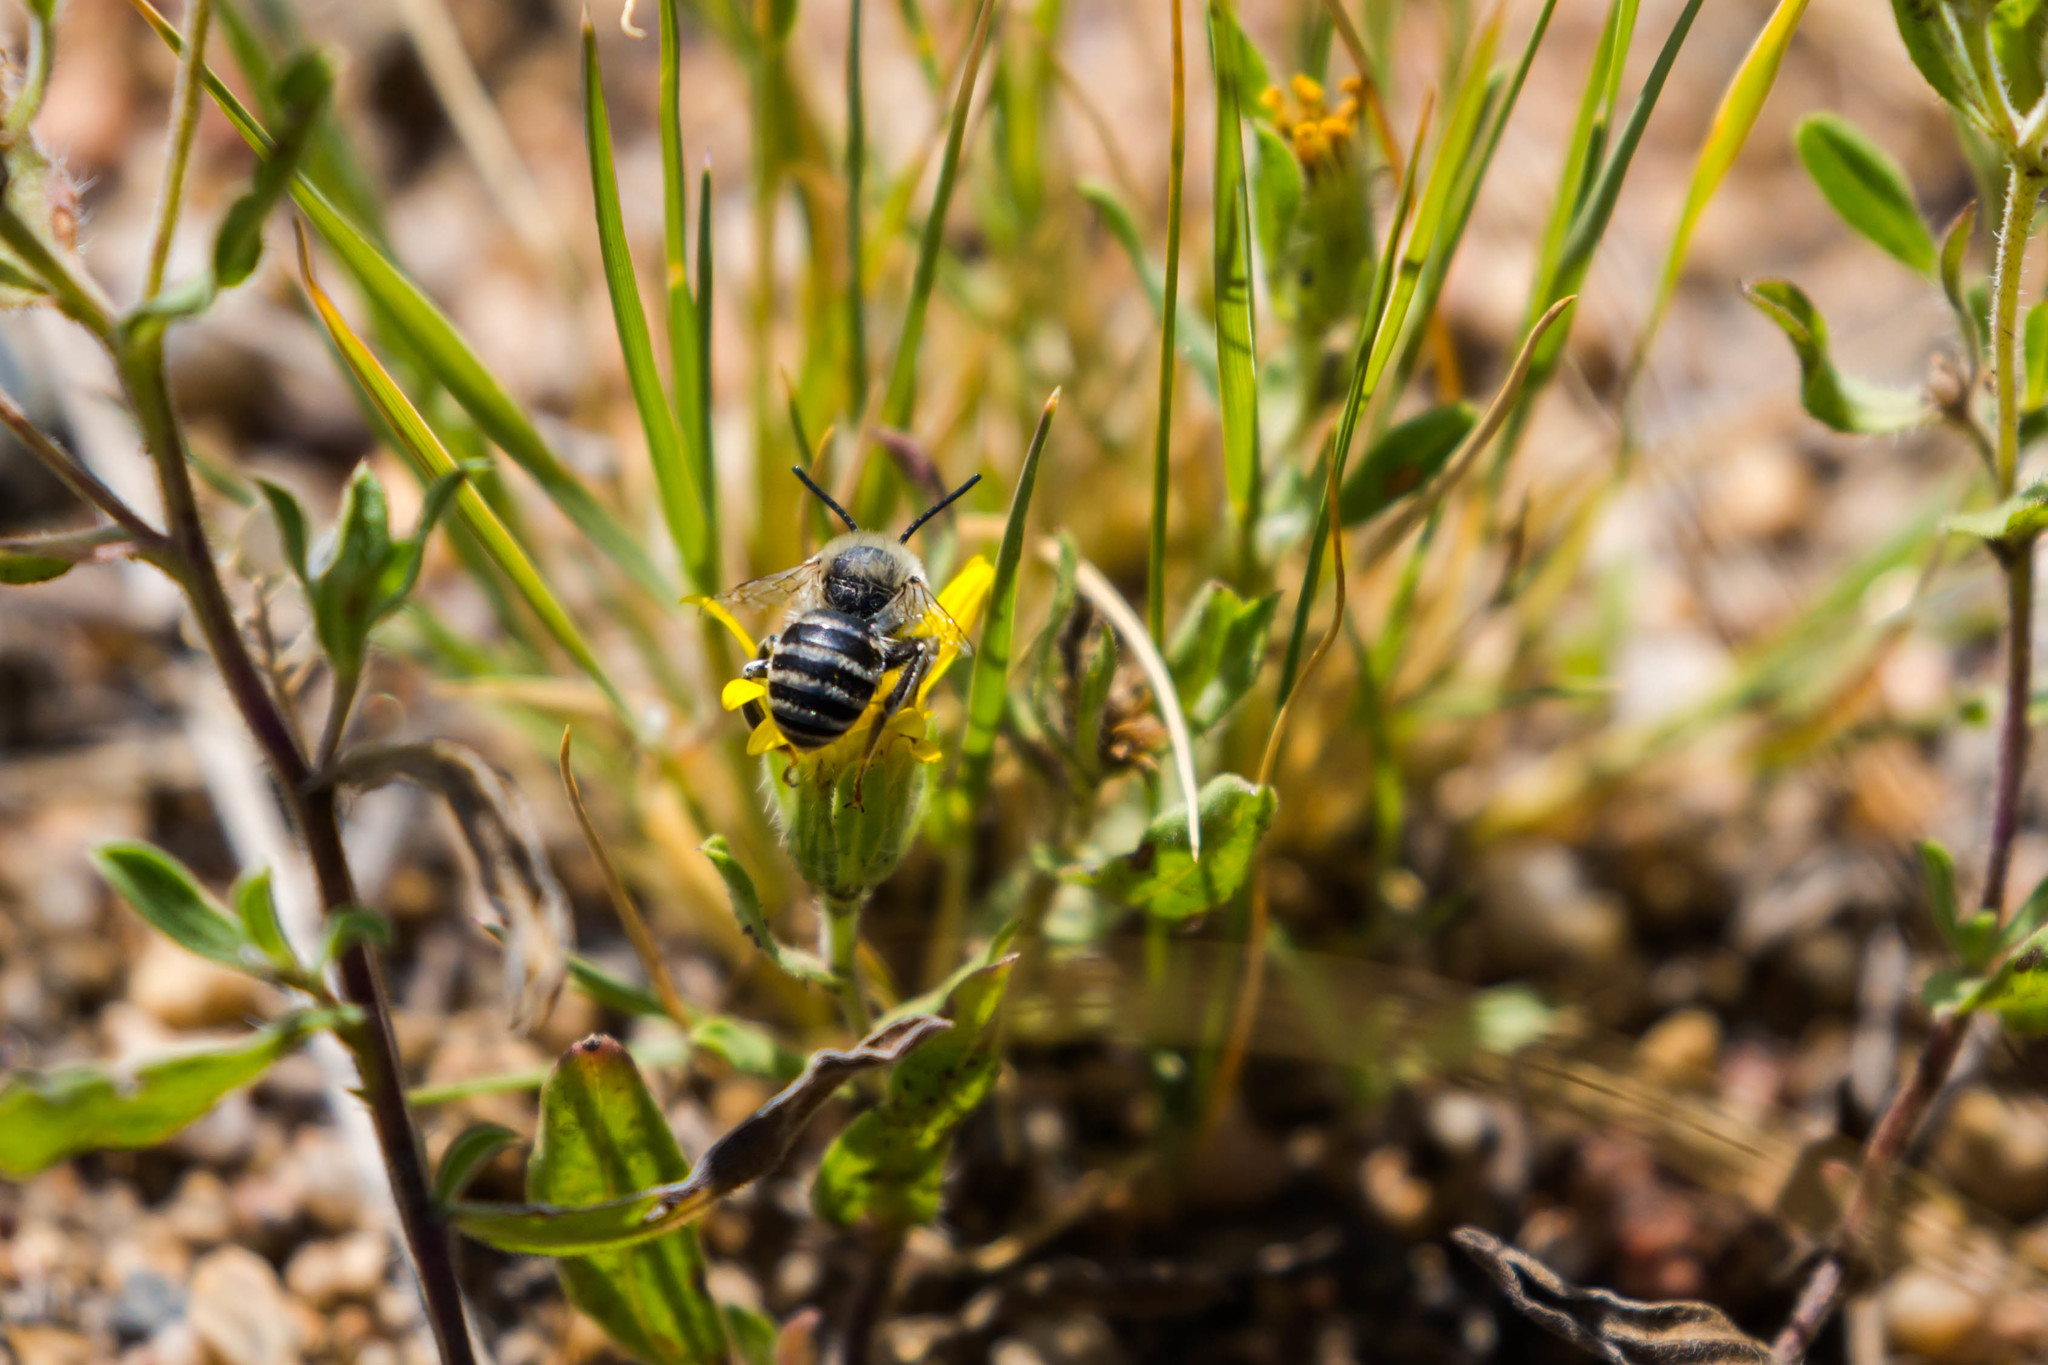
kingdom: Animalia
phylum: Arthropoda
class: Insecta
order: Hymenoptera
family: Apidae
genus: Anthophora
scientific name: Anthophora urbana
